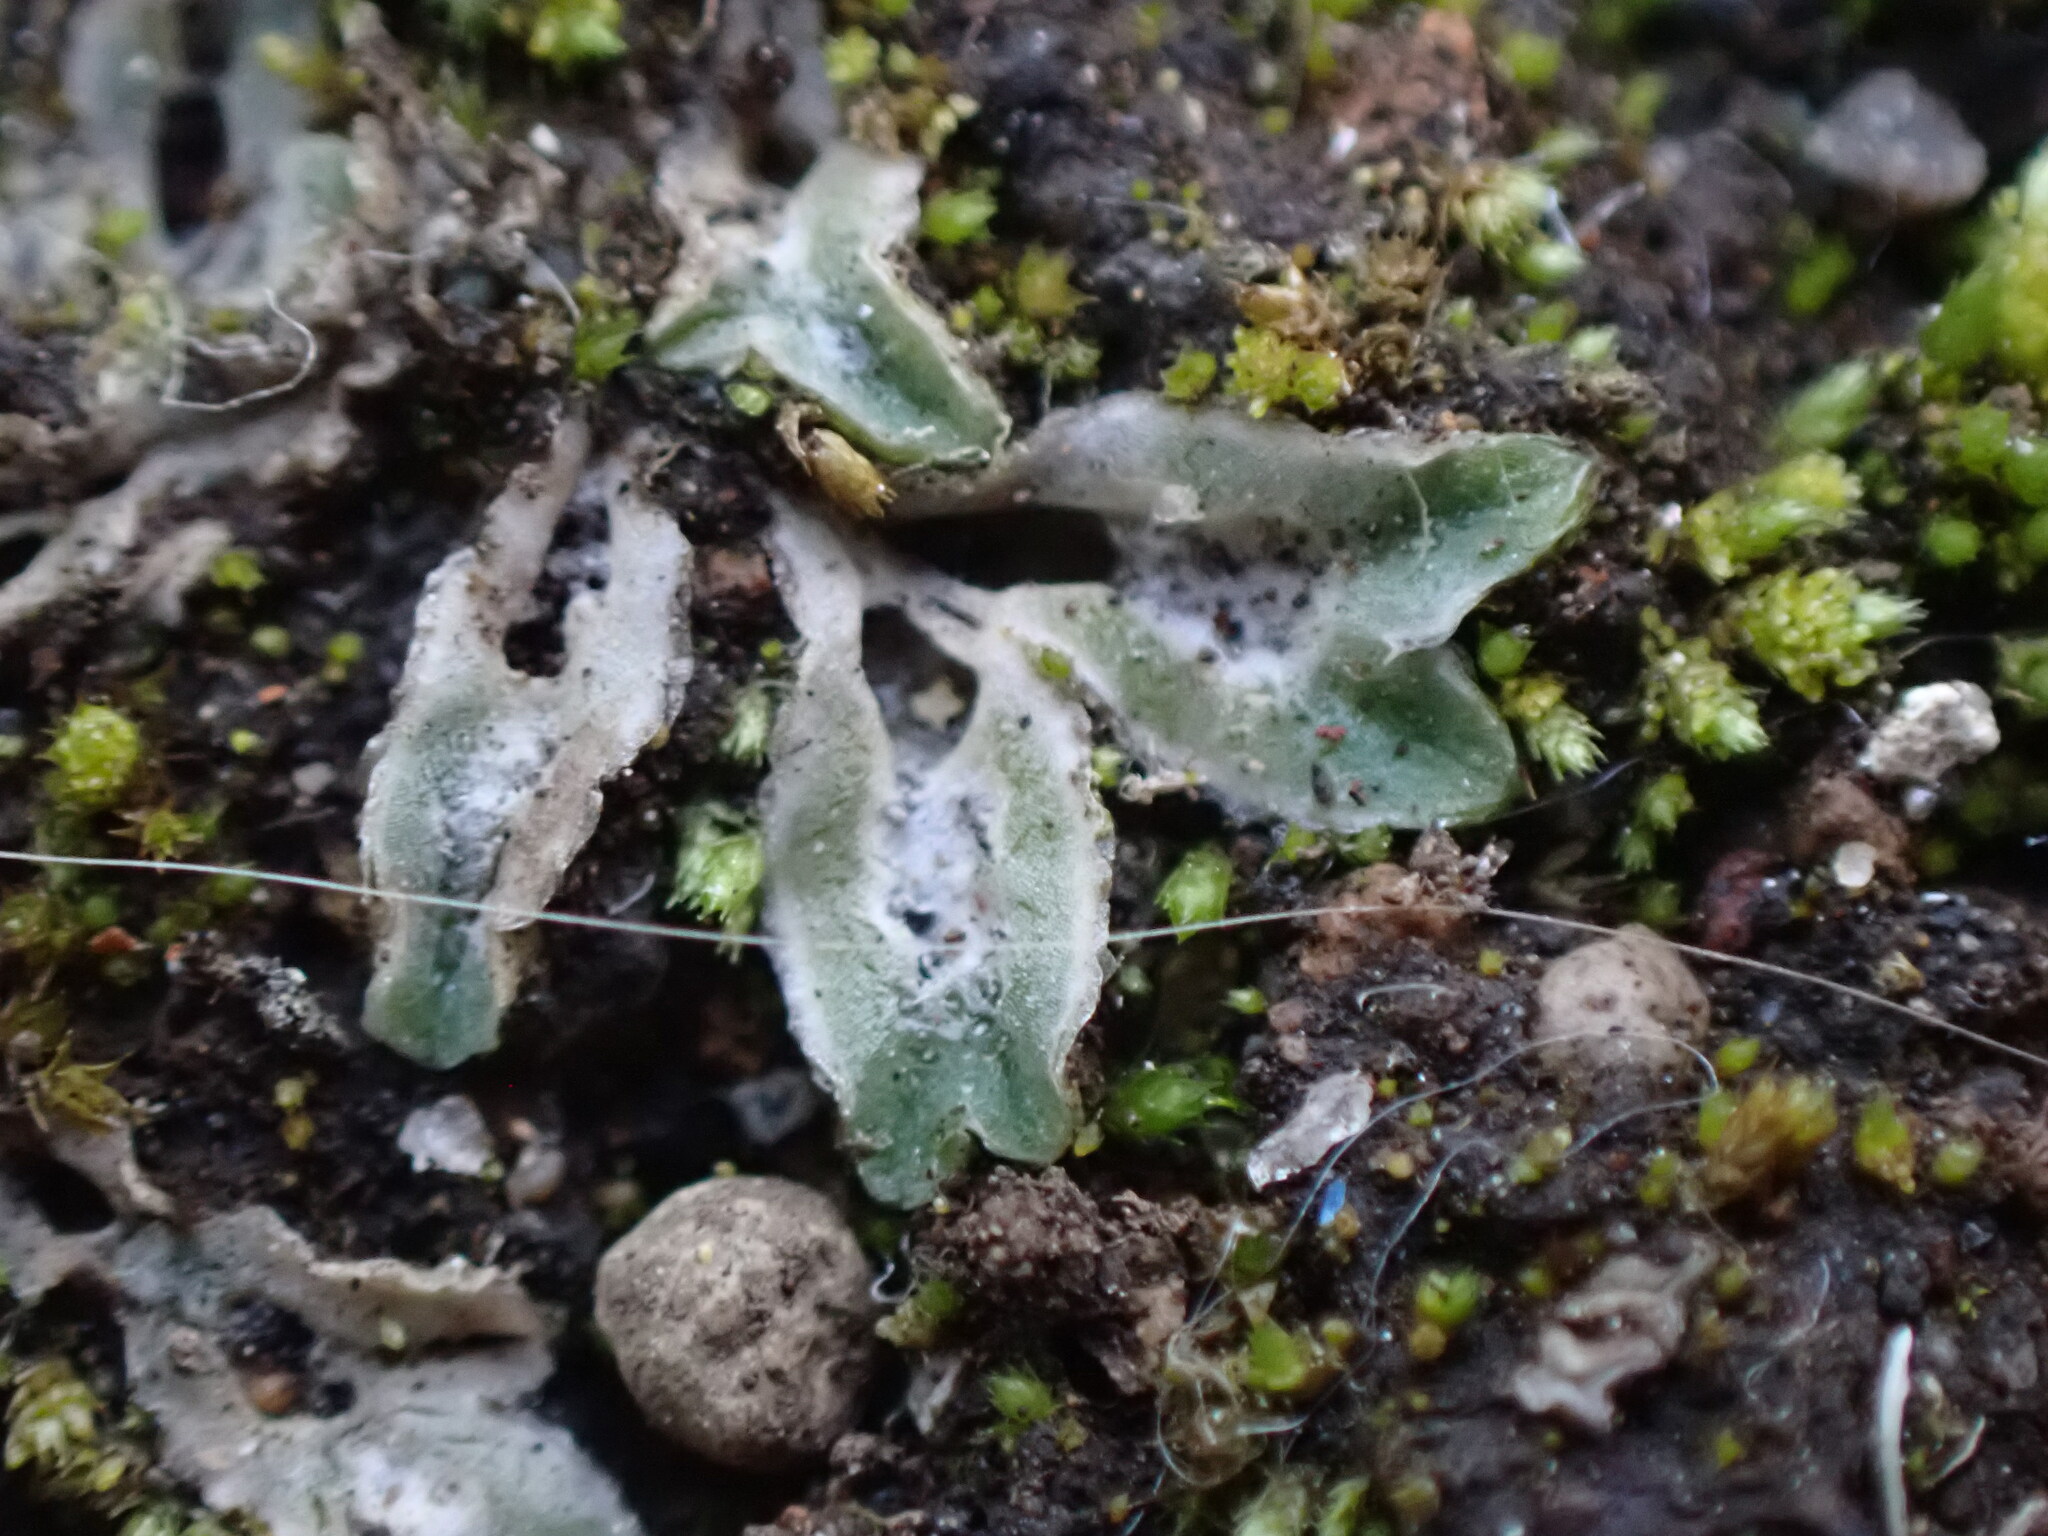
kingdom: Plantae
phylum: Marchantiophyta
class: Marchantiopsida
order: Marchantiales
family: Ricciaceae
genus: Riccia
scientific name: Riccia lamellosa
